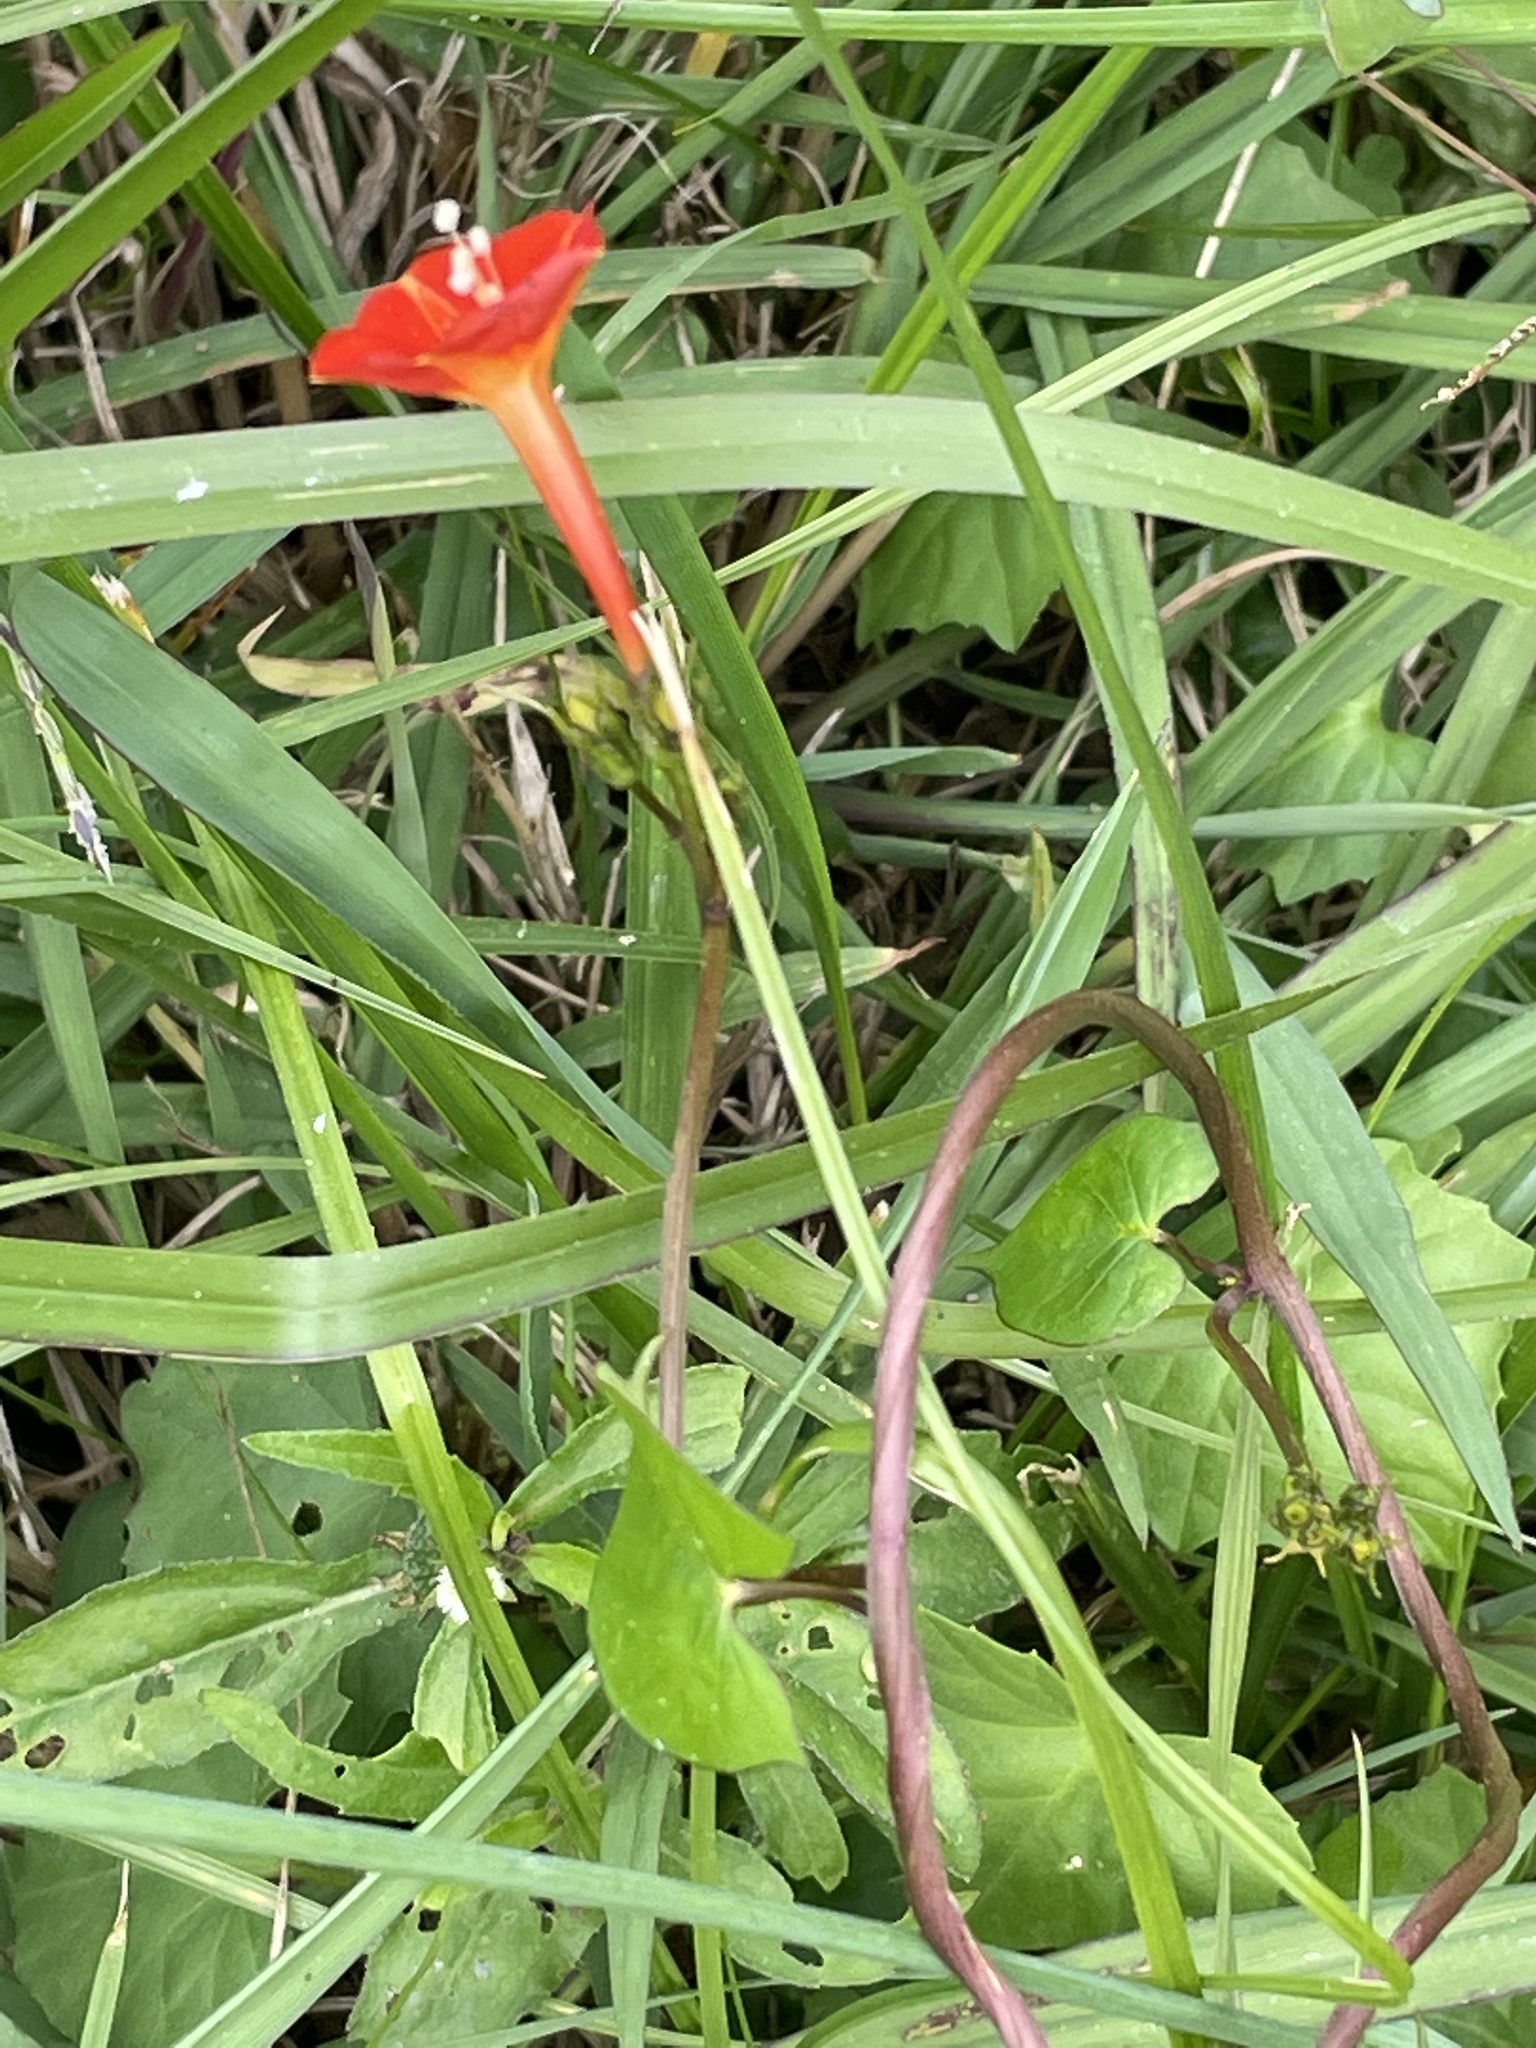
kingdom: Plantae
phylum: Tracheophyta
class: Magnoliopsida
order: Solanales
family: Convolvulaceae
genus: Ipomoea
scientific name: Ipomoea coccinea
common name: Red morning-glory
